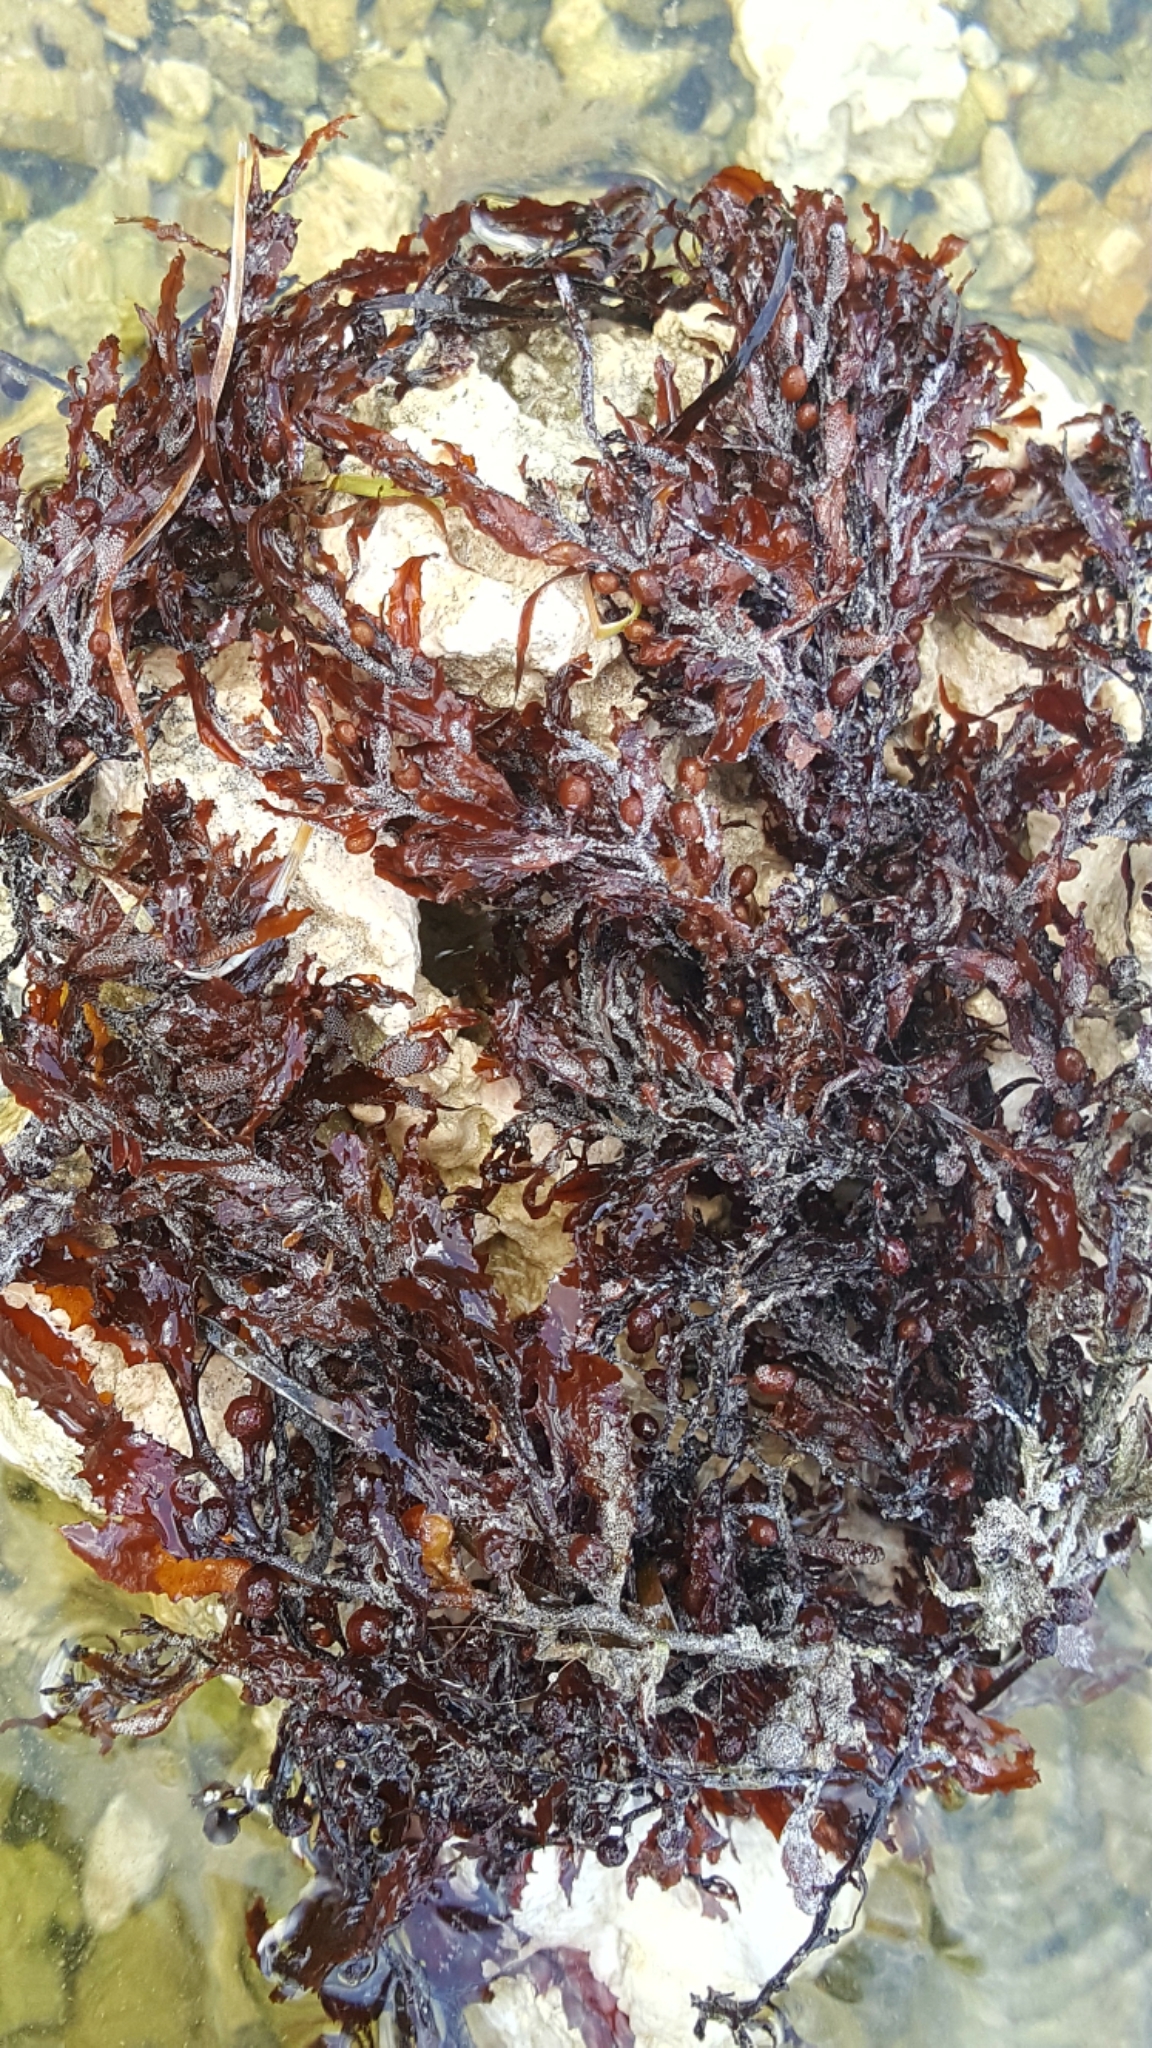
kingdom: Chromista
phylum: Ochrophyta
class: Phaeophyceae
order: Fucales
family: Sargassaceae
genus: Sargassum
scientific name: Sargassum fluitans
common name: Sargassum seaweed
